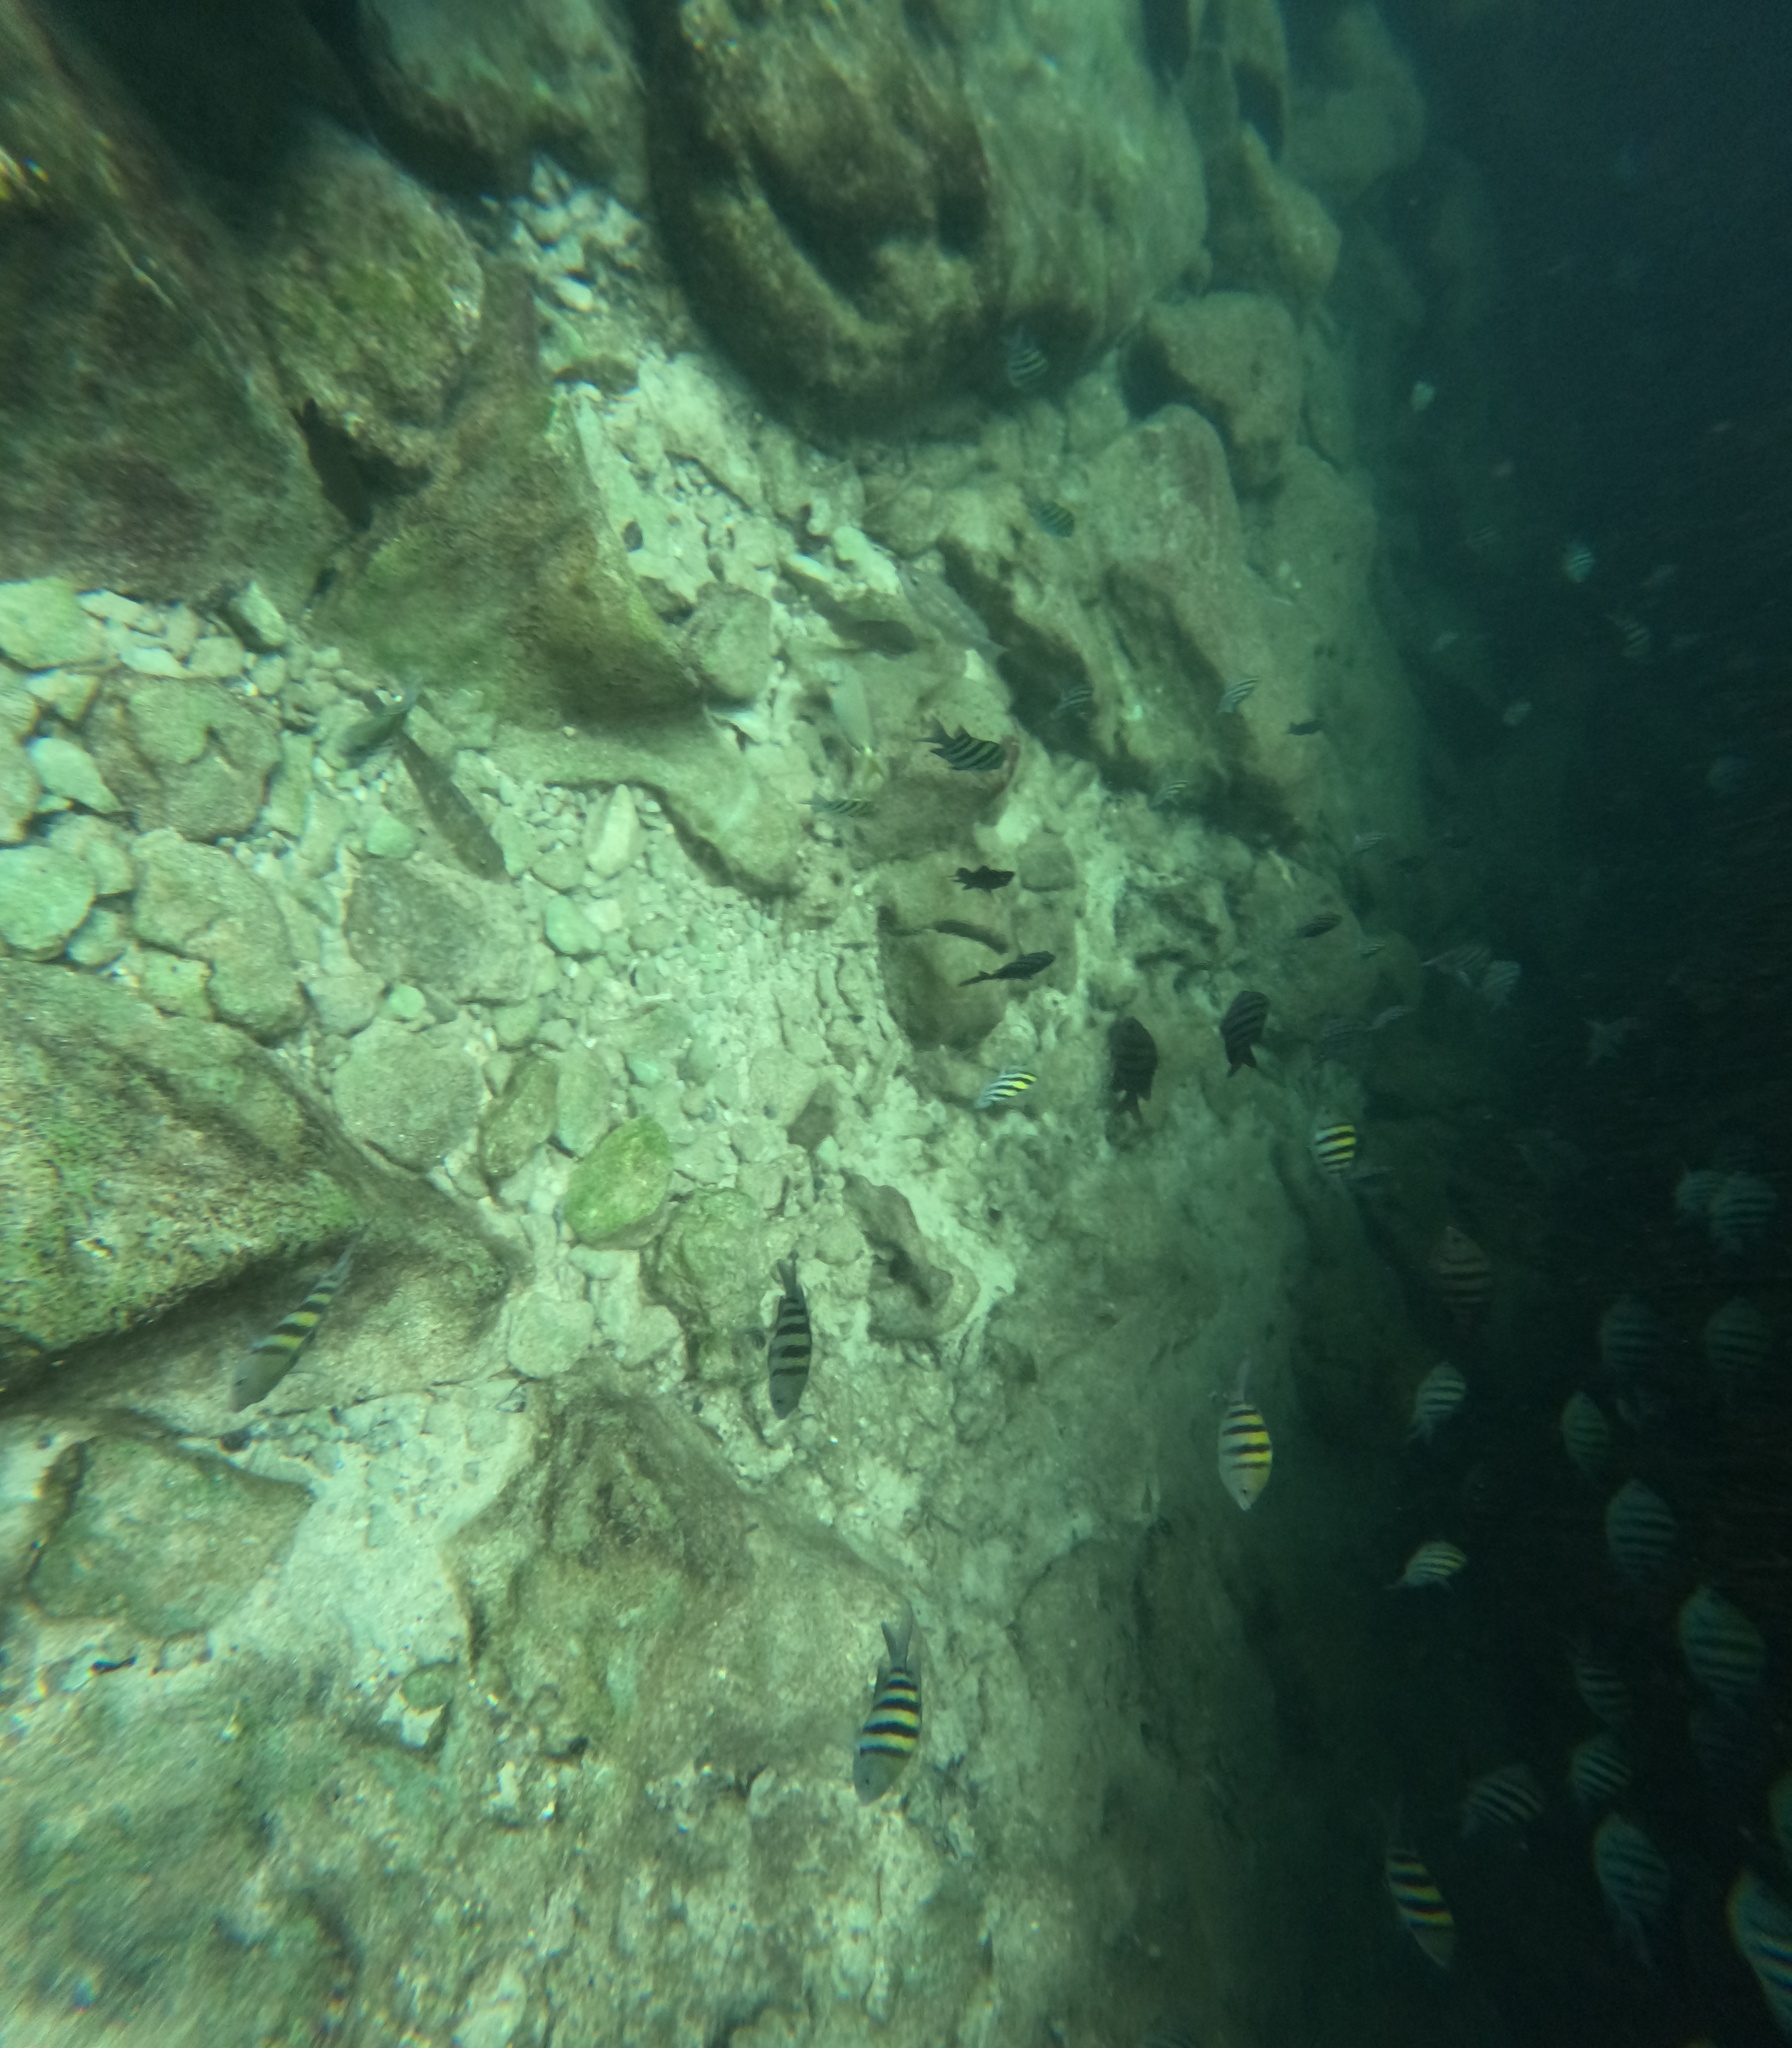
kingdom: Animalia
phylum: Chordata
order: Perciformes
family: Pomacentridae
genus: Abudefduf
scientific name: Abudefduf saxatilis
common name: Sergeant major
